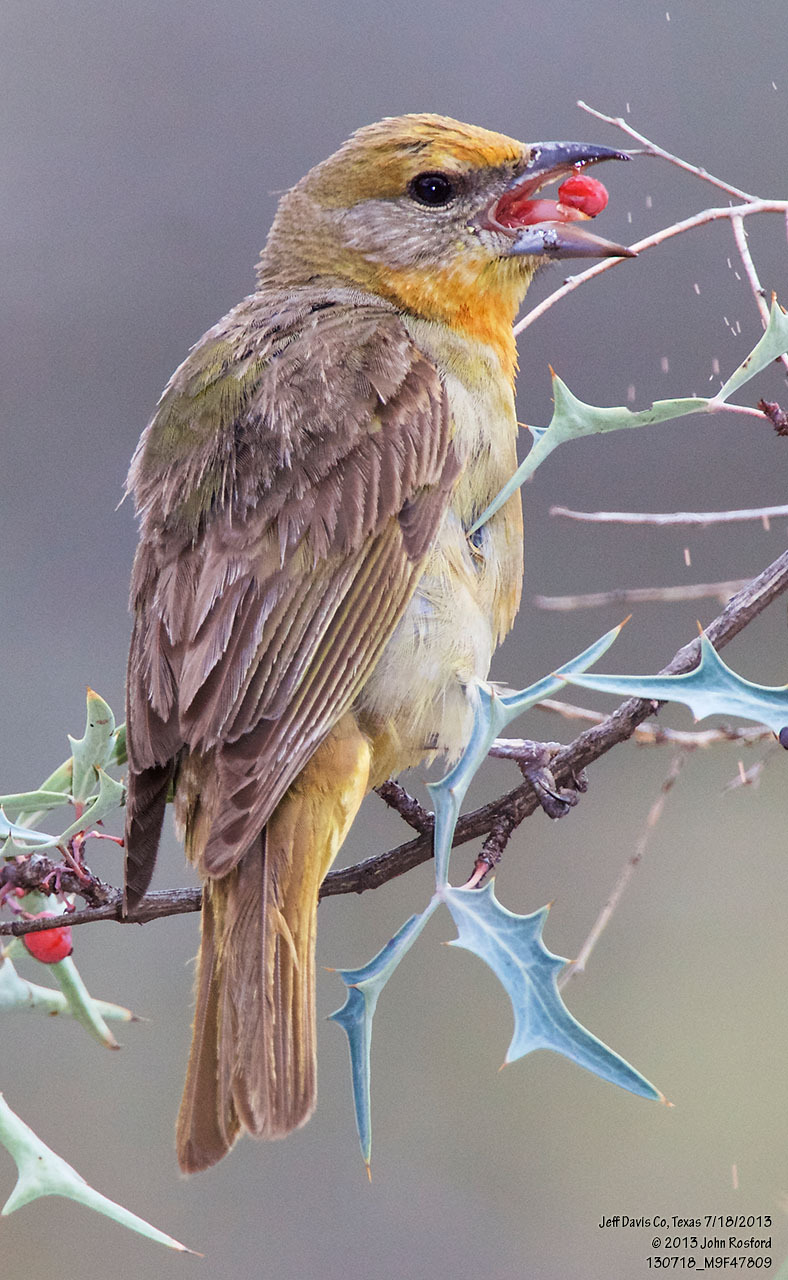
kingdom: Animalia
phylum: Chordata
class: Aves
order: Passeriformes
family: Cardinalidae
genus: Piranga
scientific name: Piranga flava
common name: Red tanager
